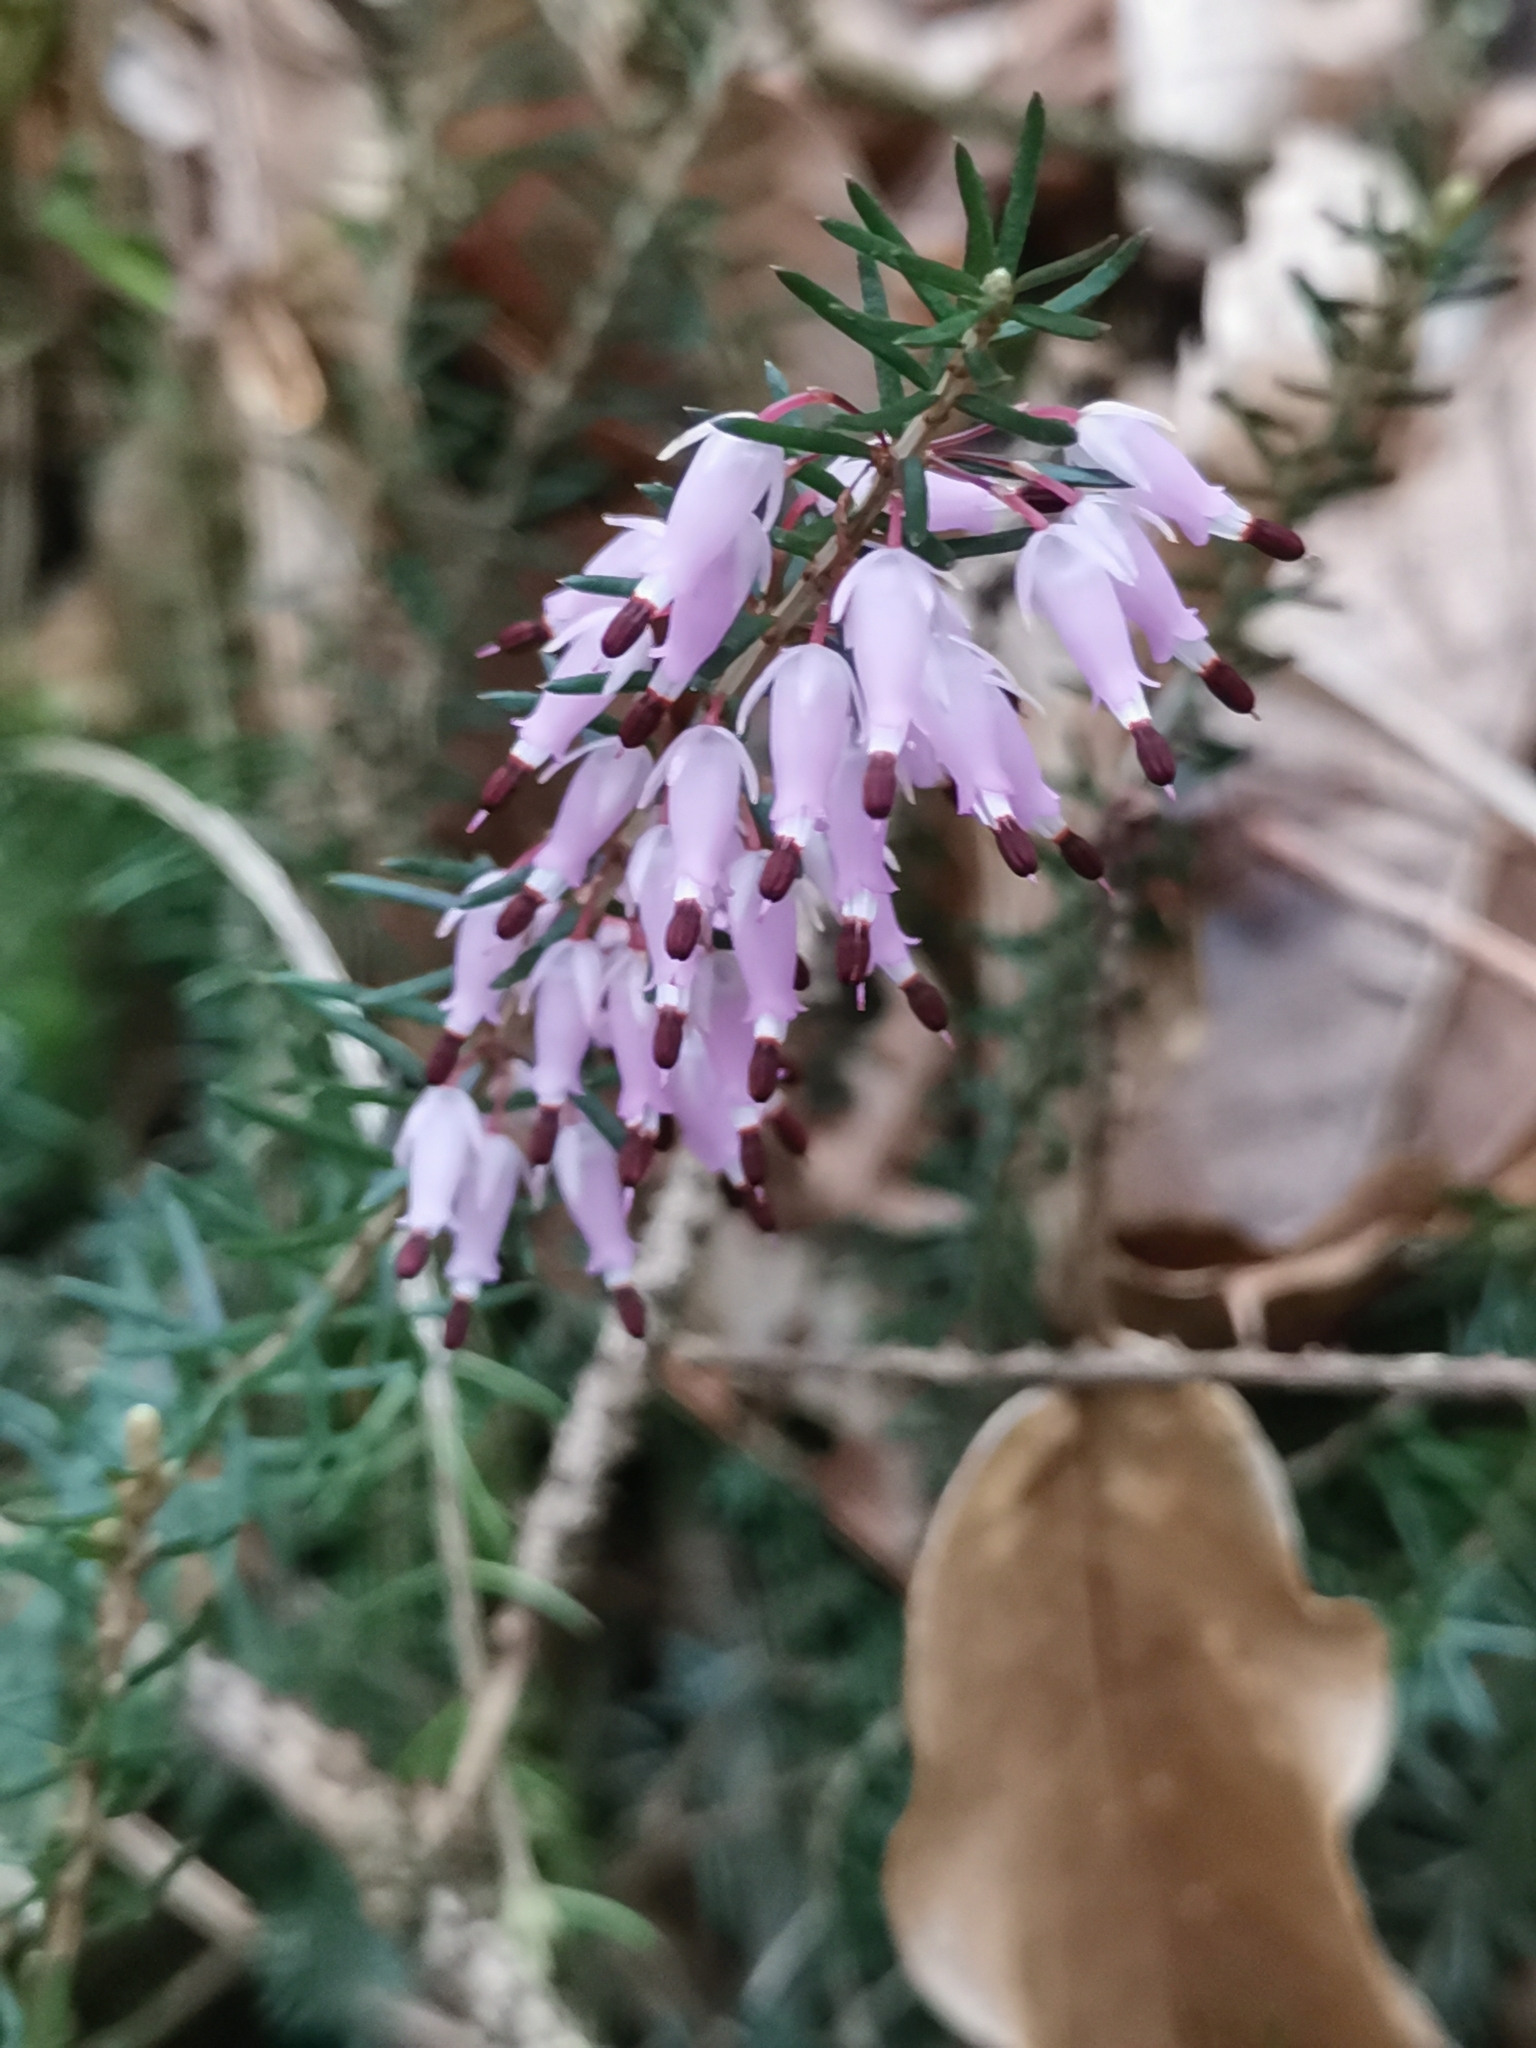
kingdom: Plantae
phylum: Tracheophyta
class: Magnoliopsida
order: Ericales
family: Ericaceae
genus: Erica
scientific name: Erica carnea
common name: Winter heath
